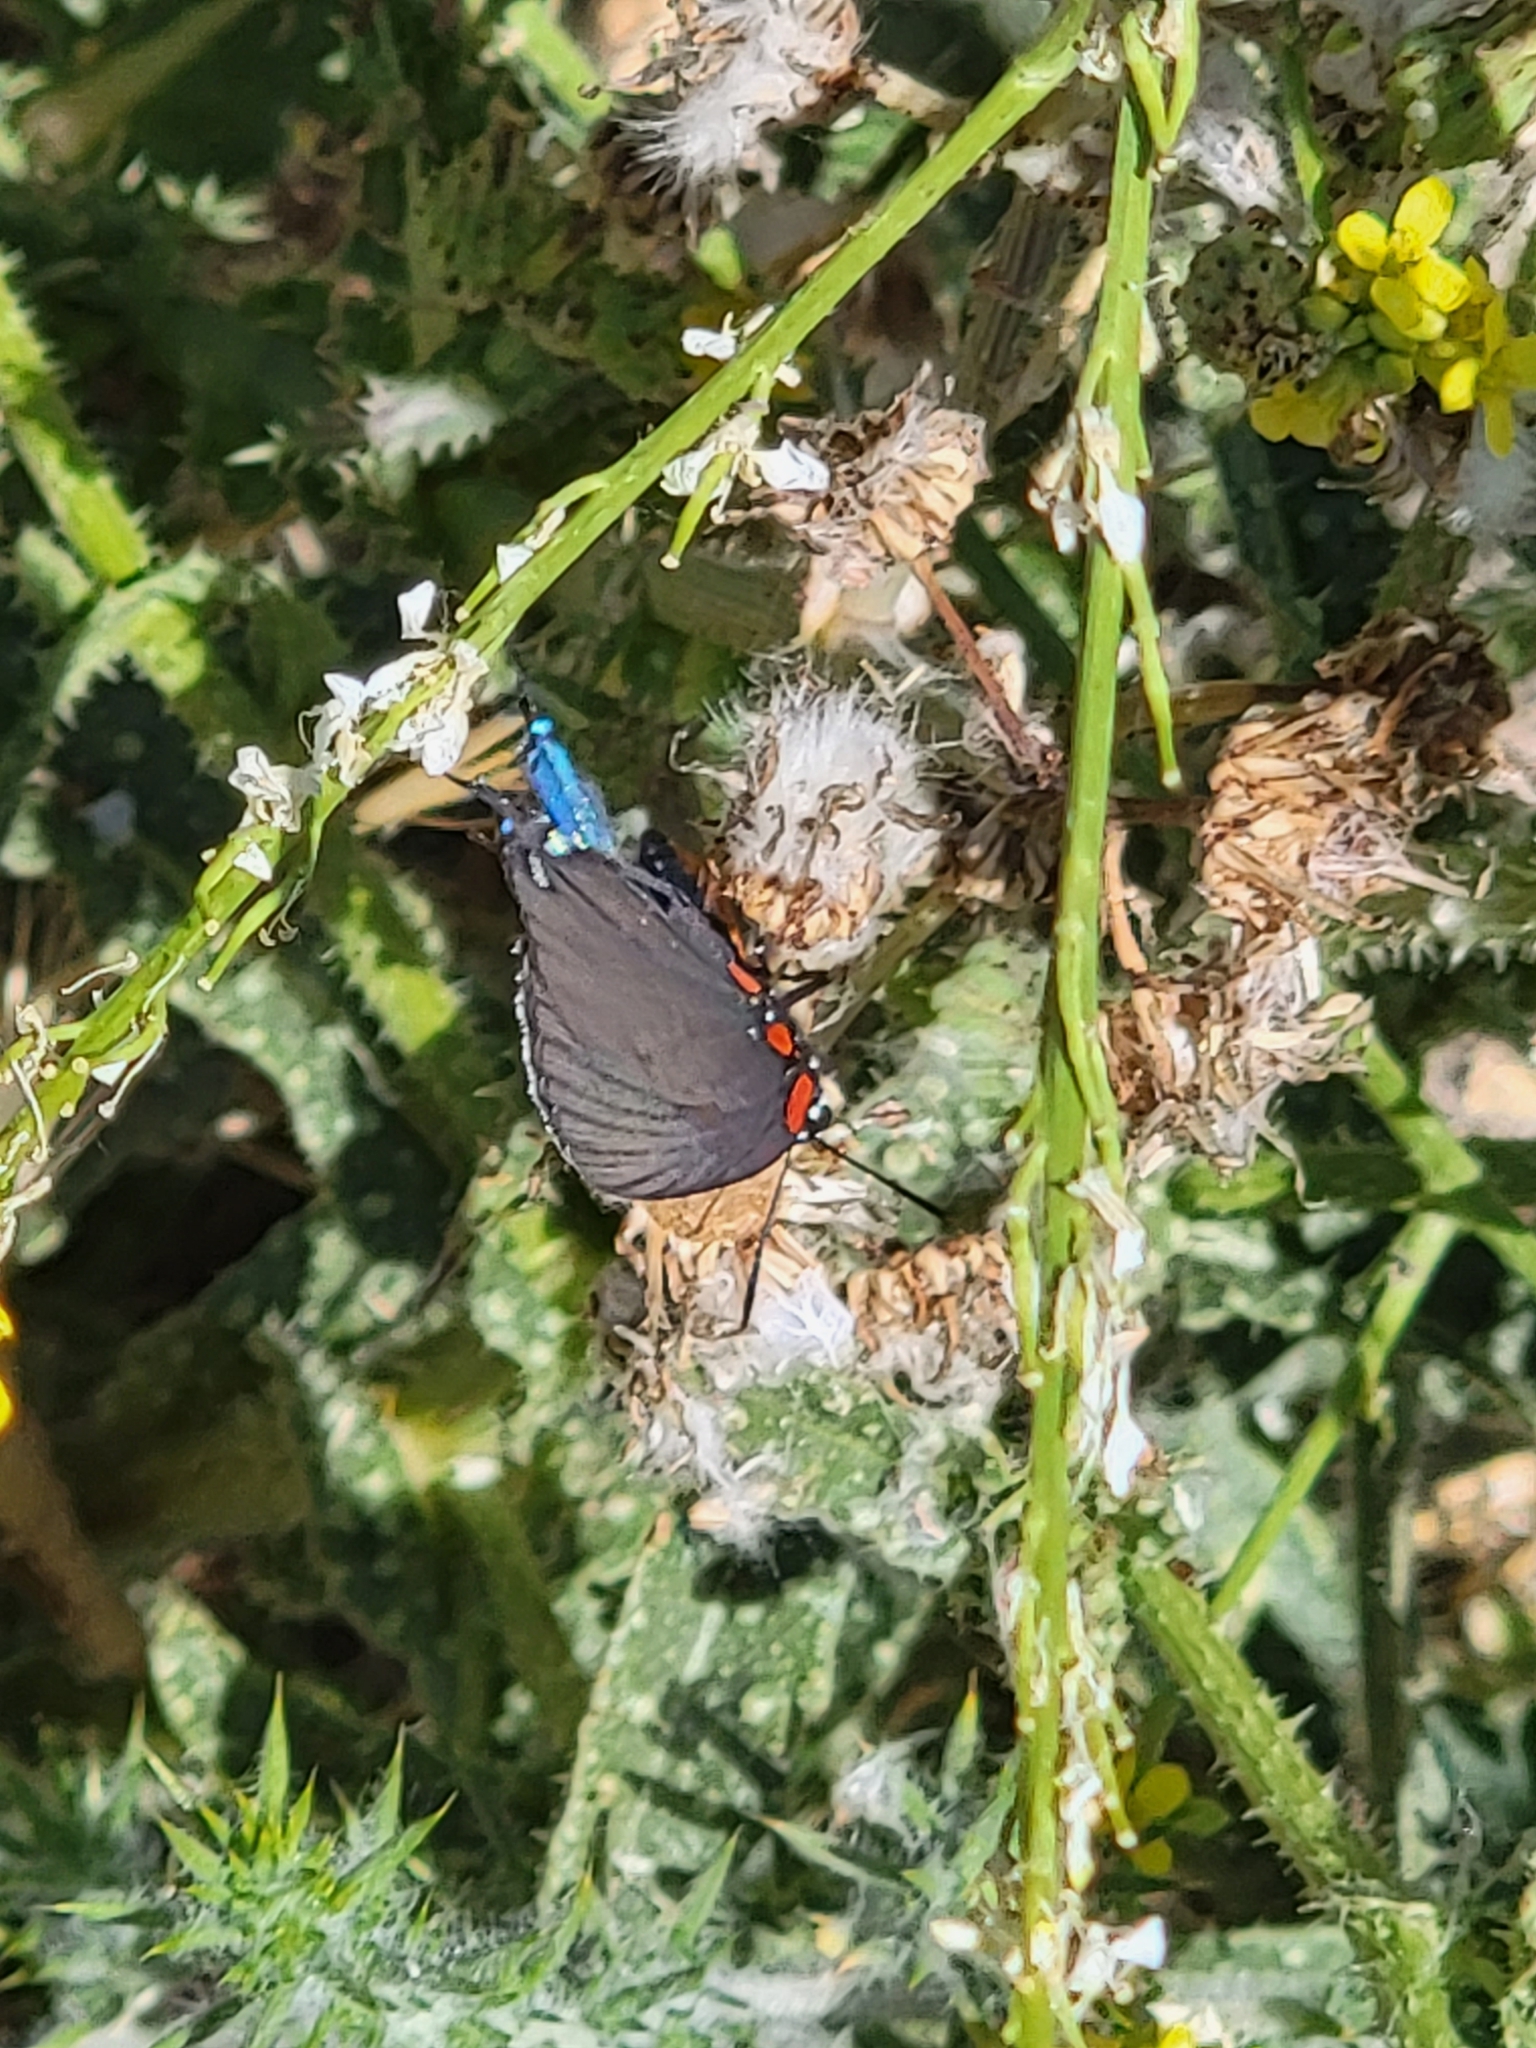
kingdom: Animalia
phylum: Arthropoda
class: Insecta
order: Lepidoptera
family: Lycaenidae
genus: Atlides
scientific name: Atlides halesus
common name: Great purple hairstreak
